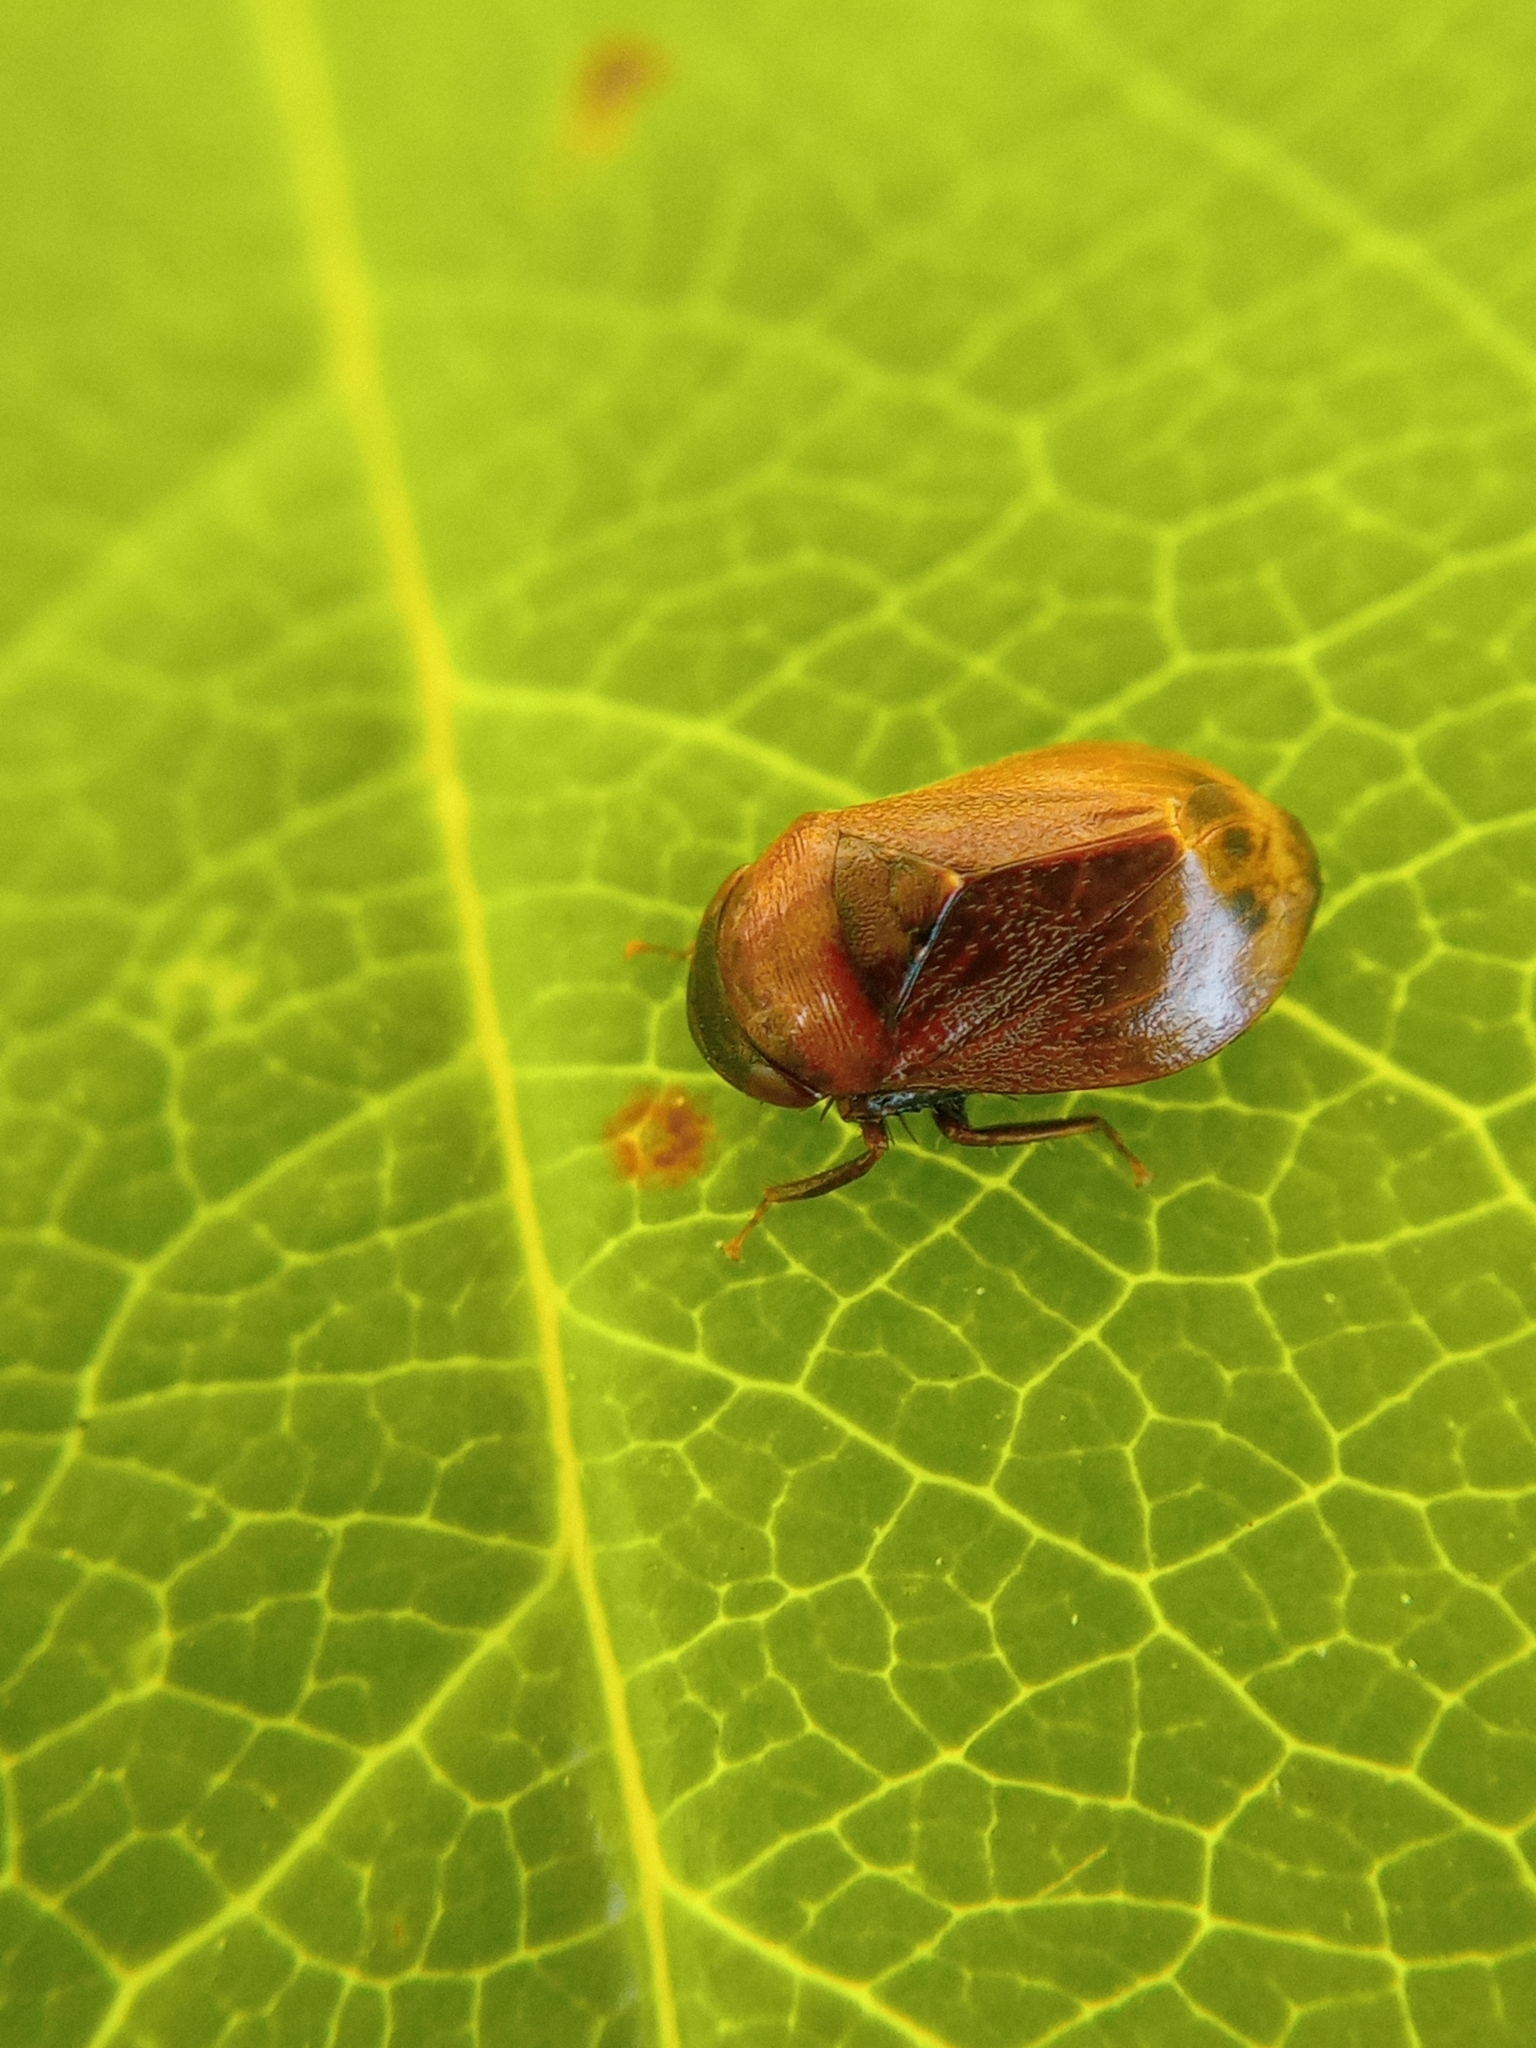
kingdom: Animalia
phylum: Arthropoda
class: Insecta
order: Hemiptera
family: Cicadellidae
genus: Penthimia
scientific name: Penthimia nigra
